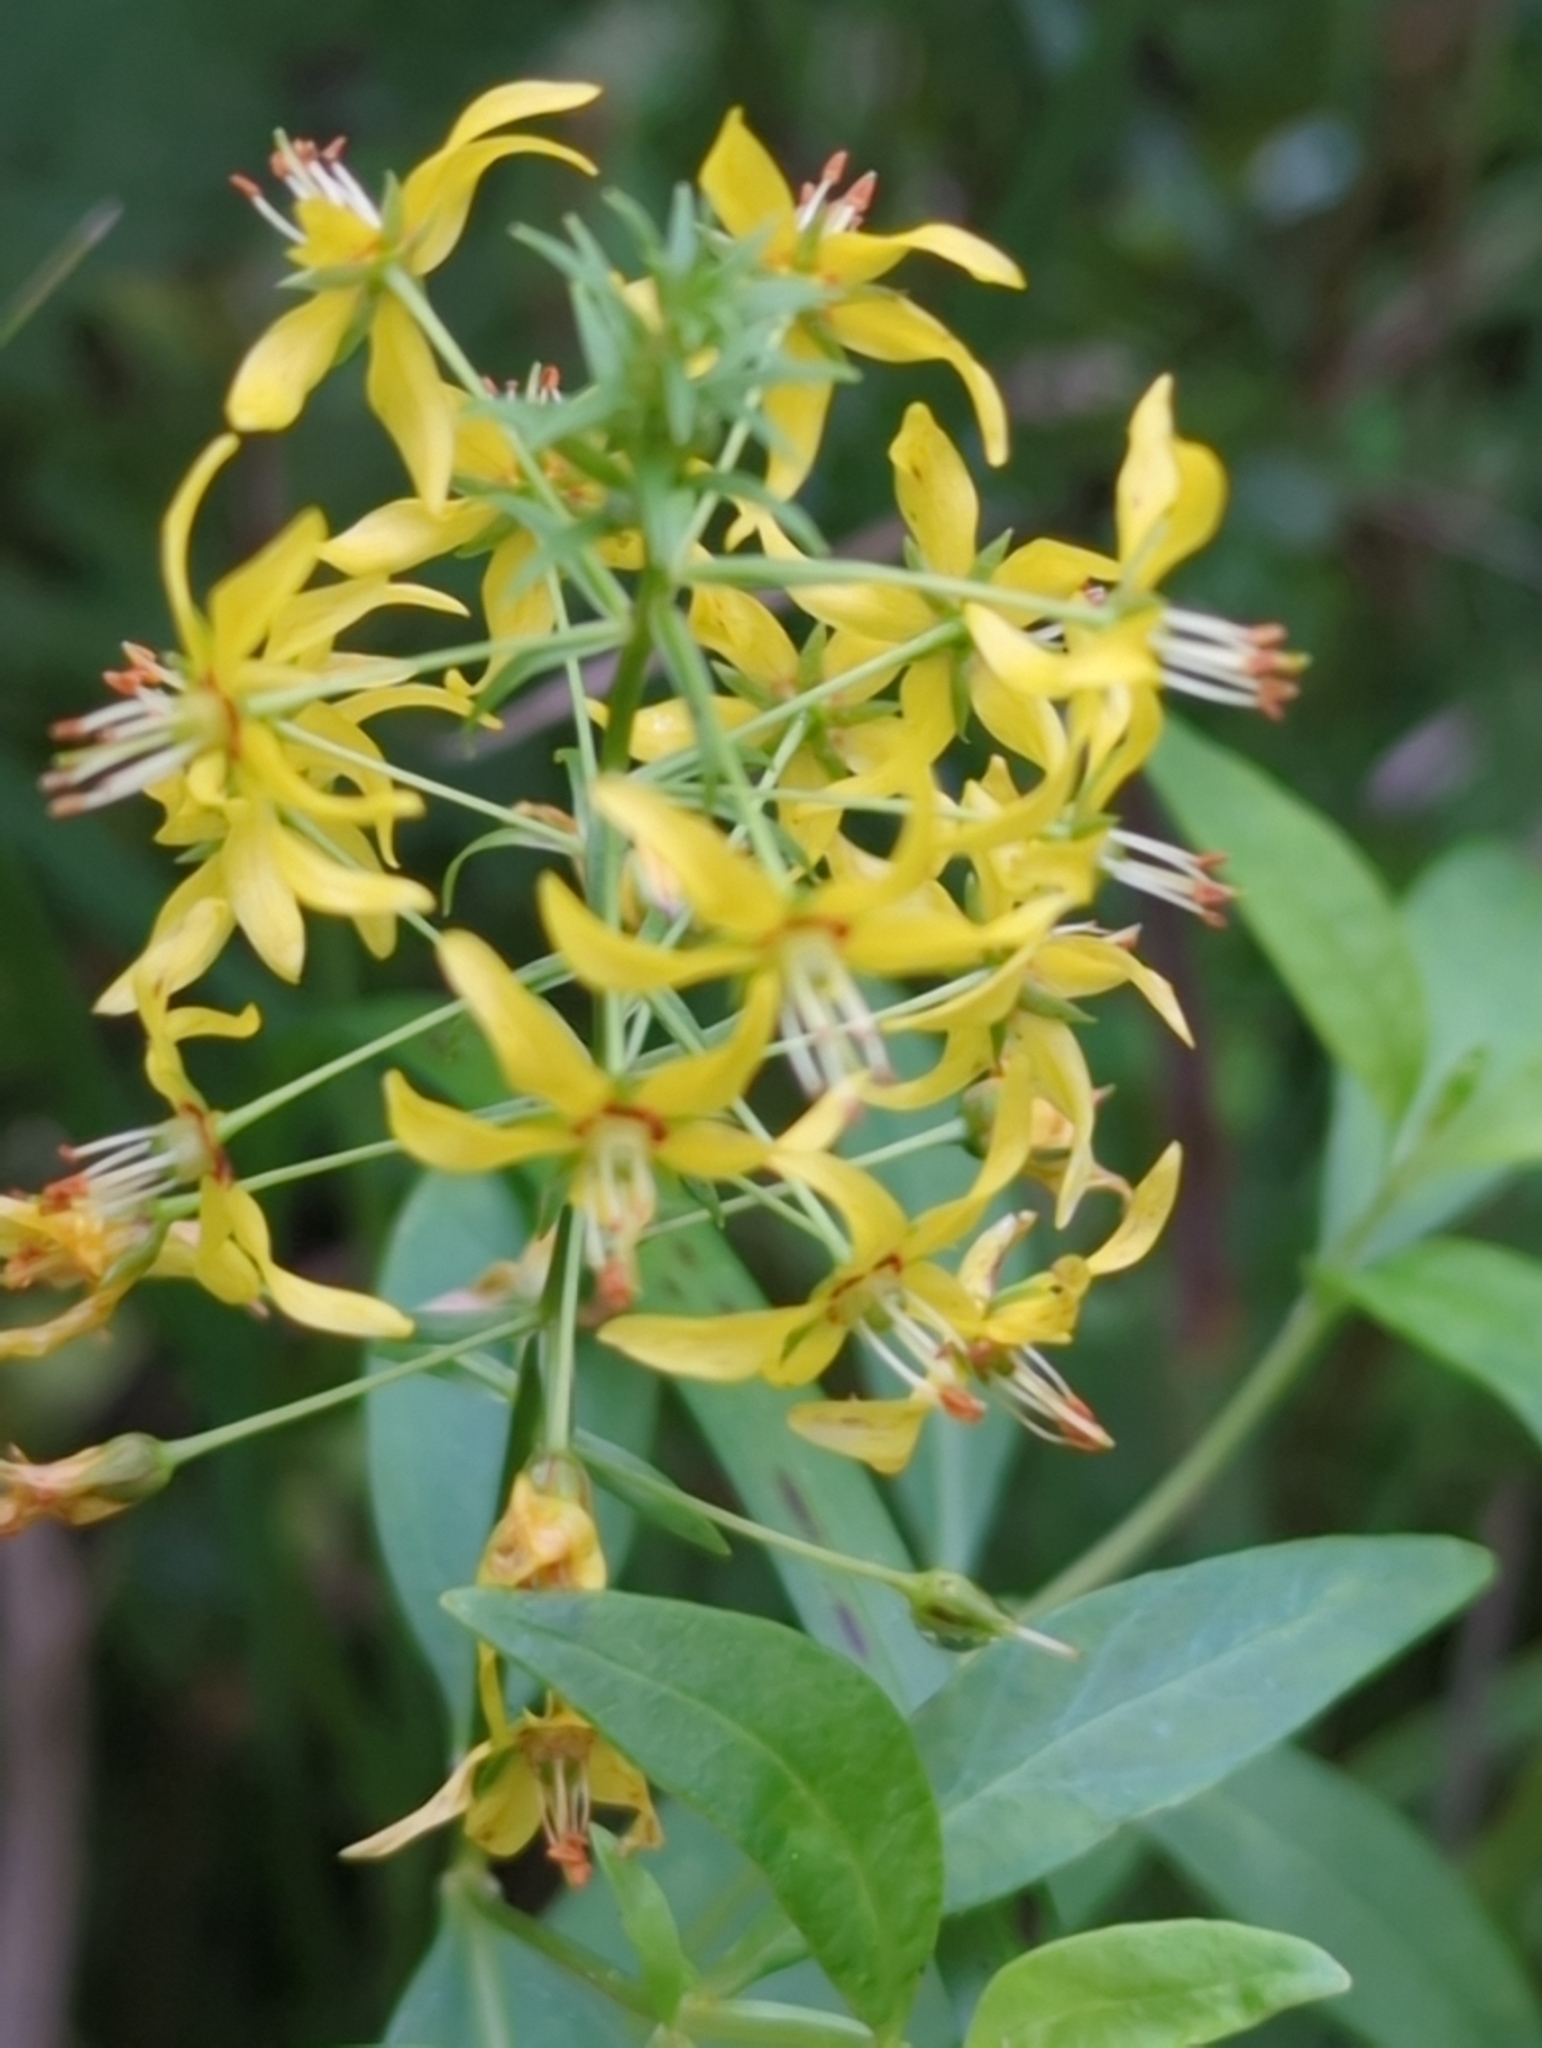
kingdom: Plantae
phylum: Tracheophyta
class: Magnoliopsida
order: Ericales
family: Primulaceae
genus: Lysimachia
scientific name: Lysimachia terrestris
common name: Lake loosestrife
